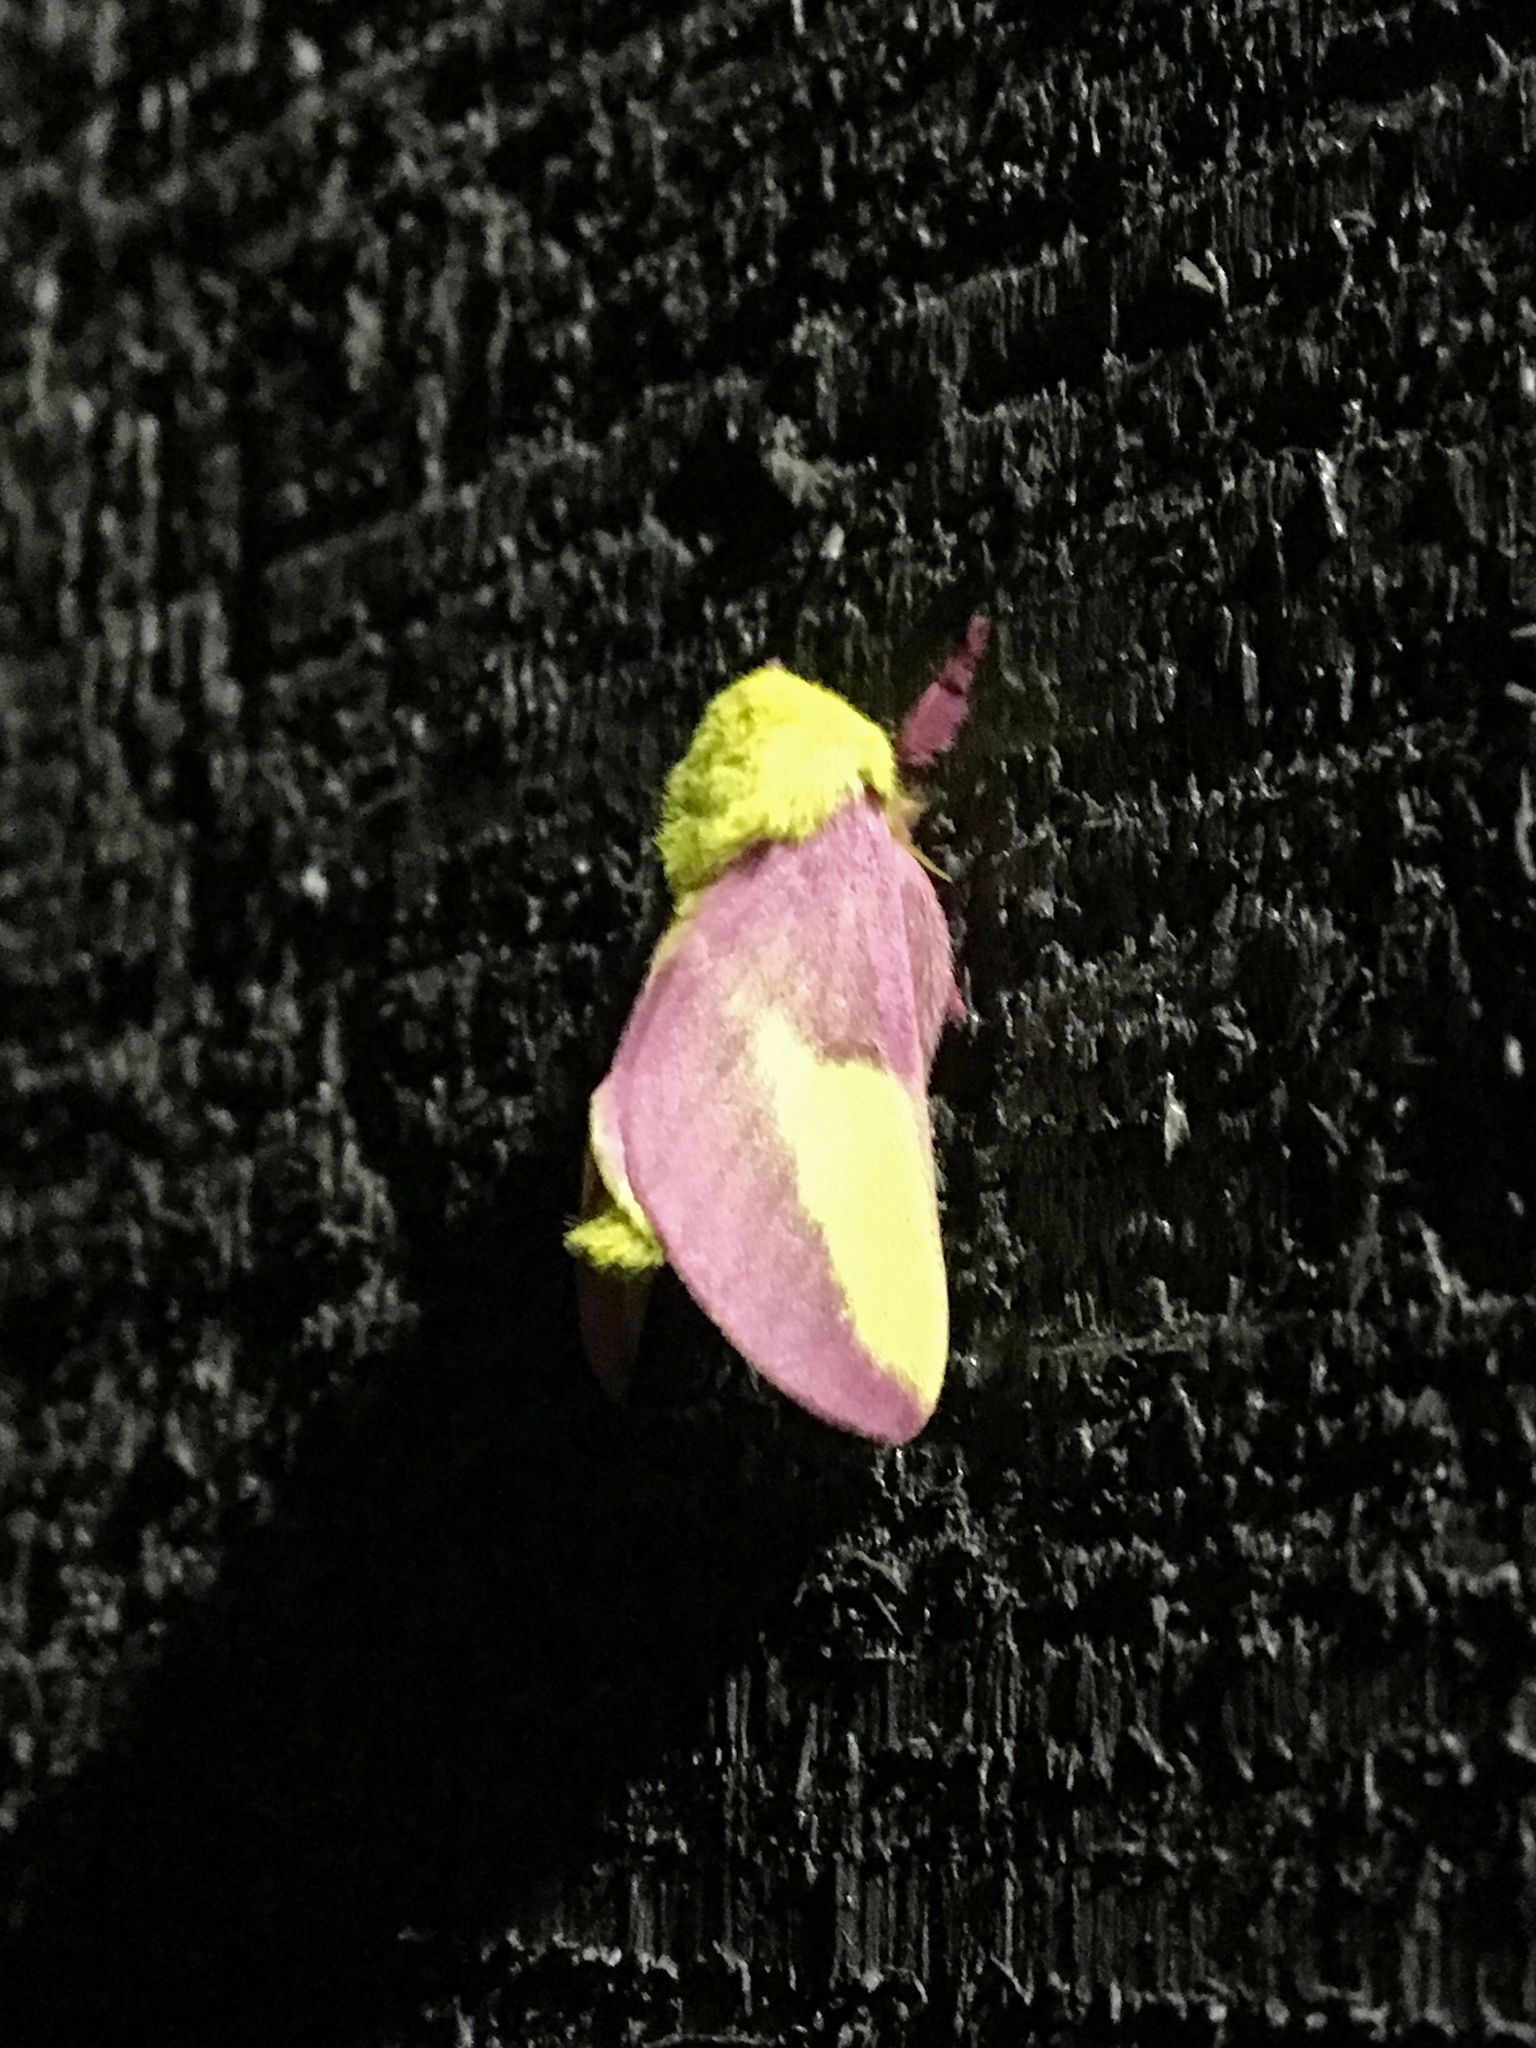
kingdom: Animalia
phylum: Arthropoda
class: Insecta
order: Lepidoptera
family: Saturniidae
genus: Dryocampa
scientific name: Dryocampa rubicunda
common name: Rosy maple moth
